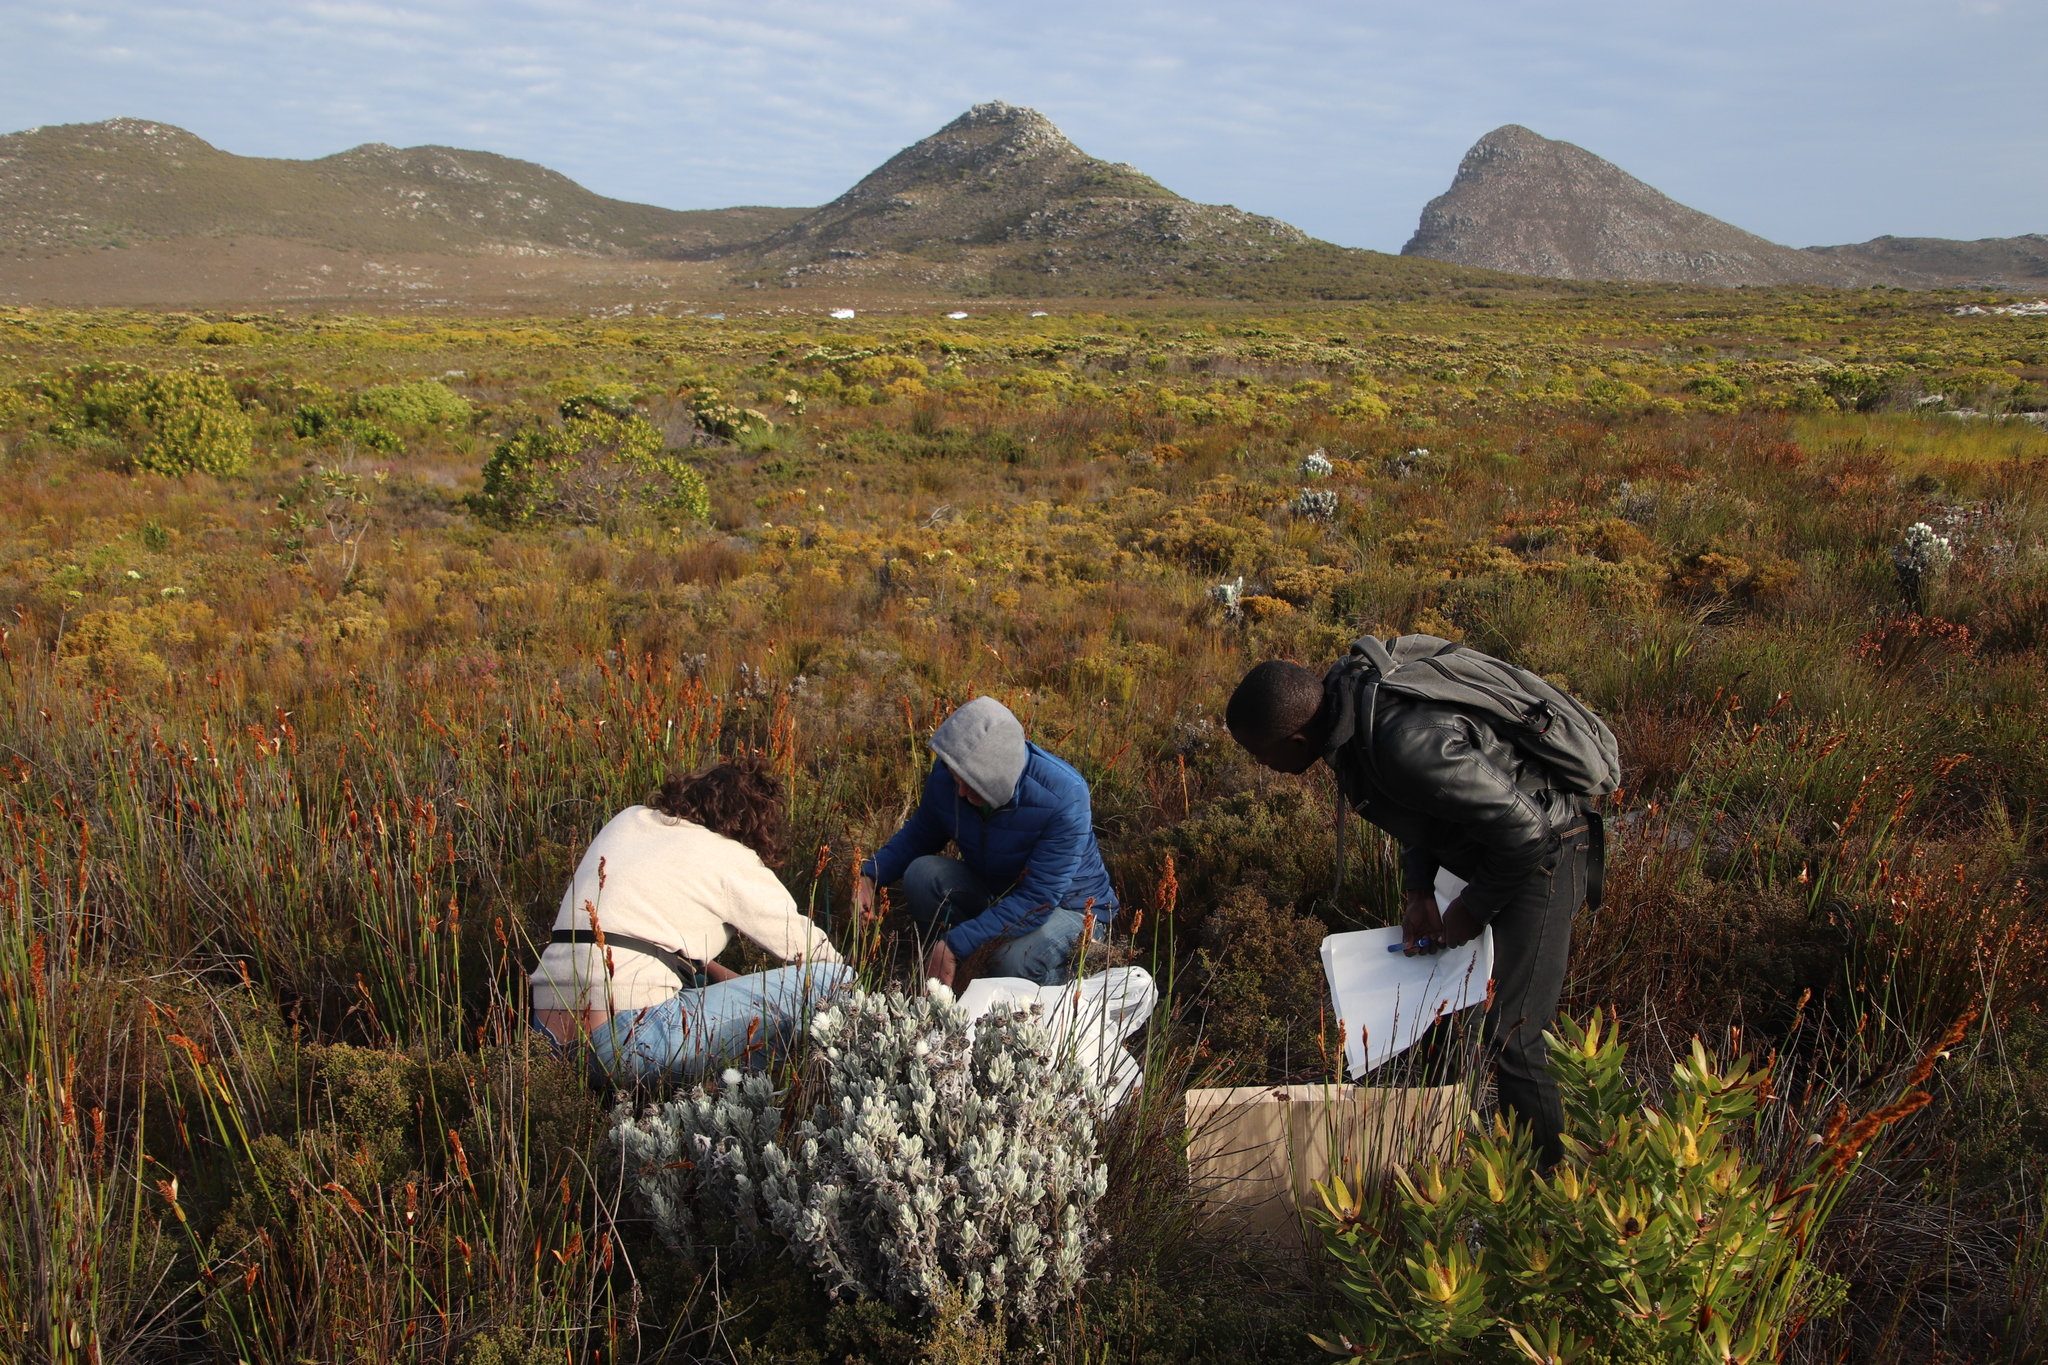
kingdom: Plantae
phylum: Tracheophyta
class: Magnoliopsida
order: Asterales
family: Asteraceae
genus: Syncarpha
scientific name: Syncarpha vestita
